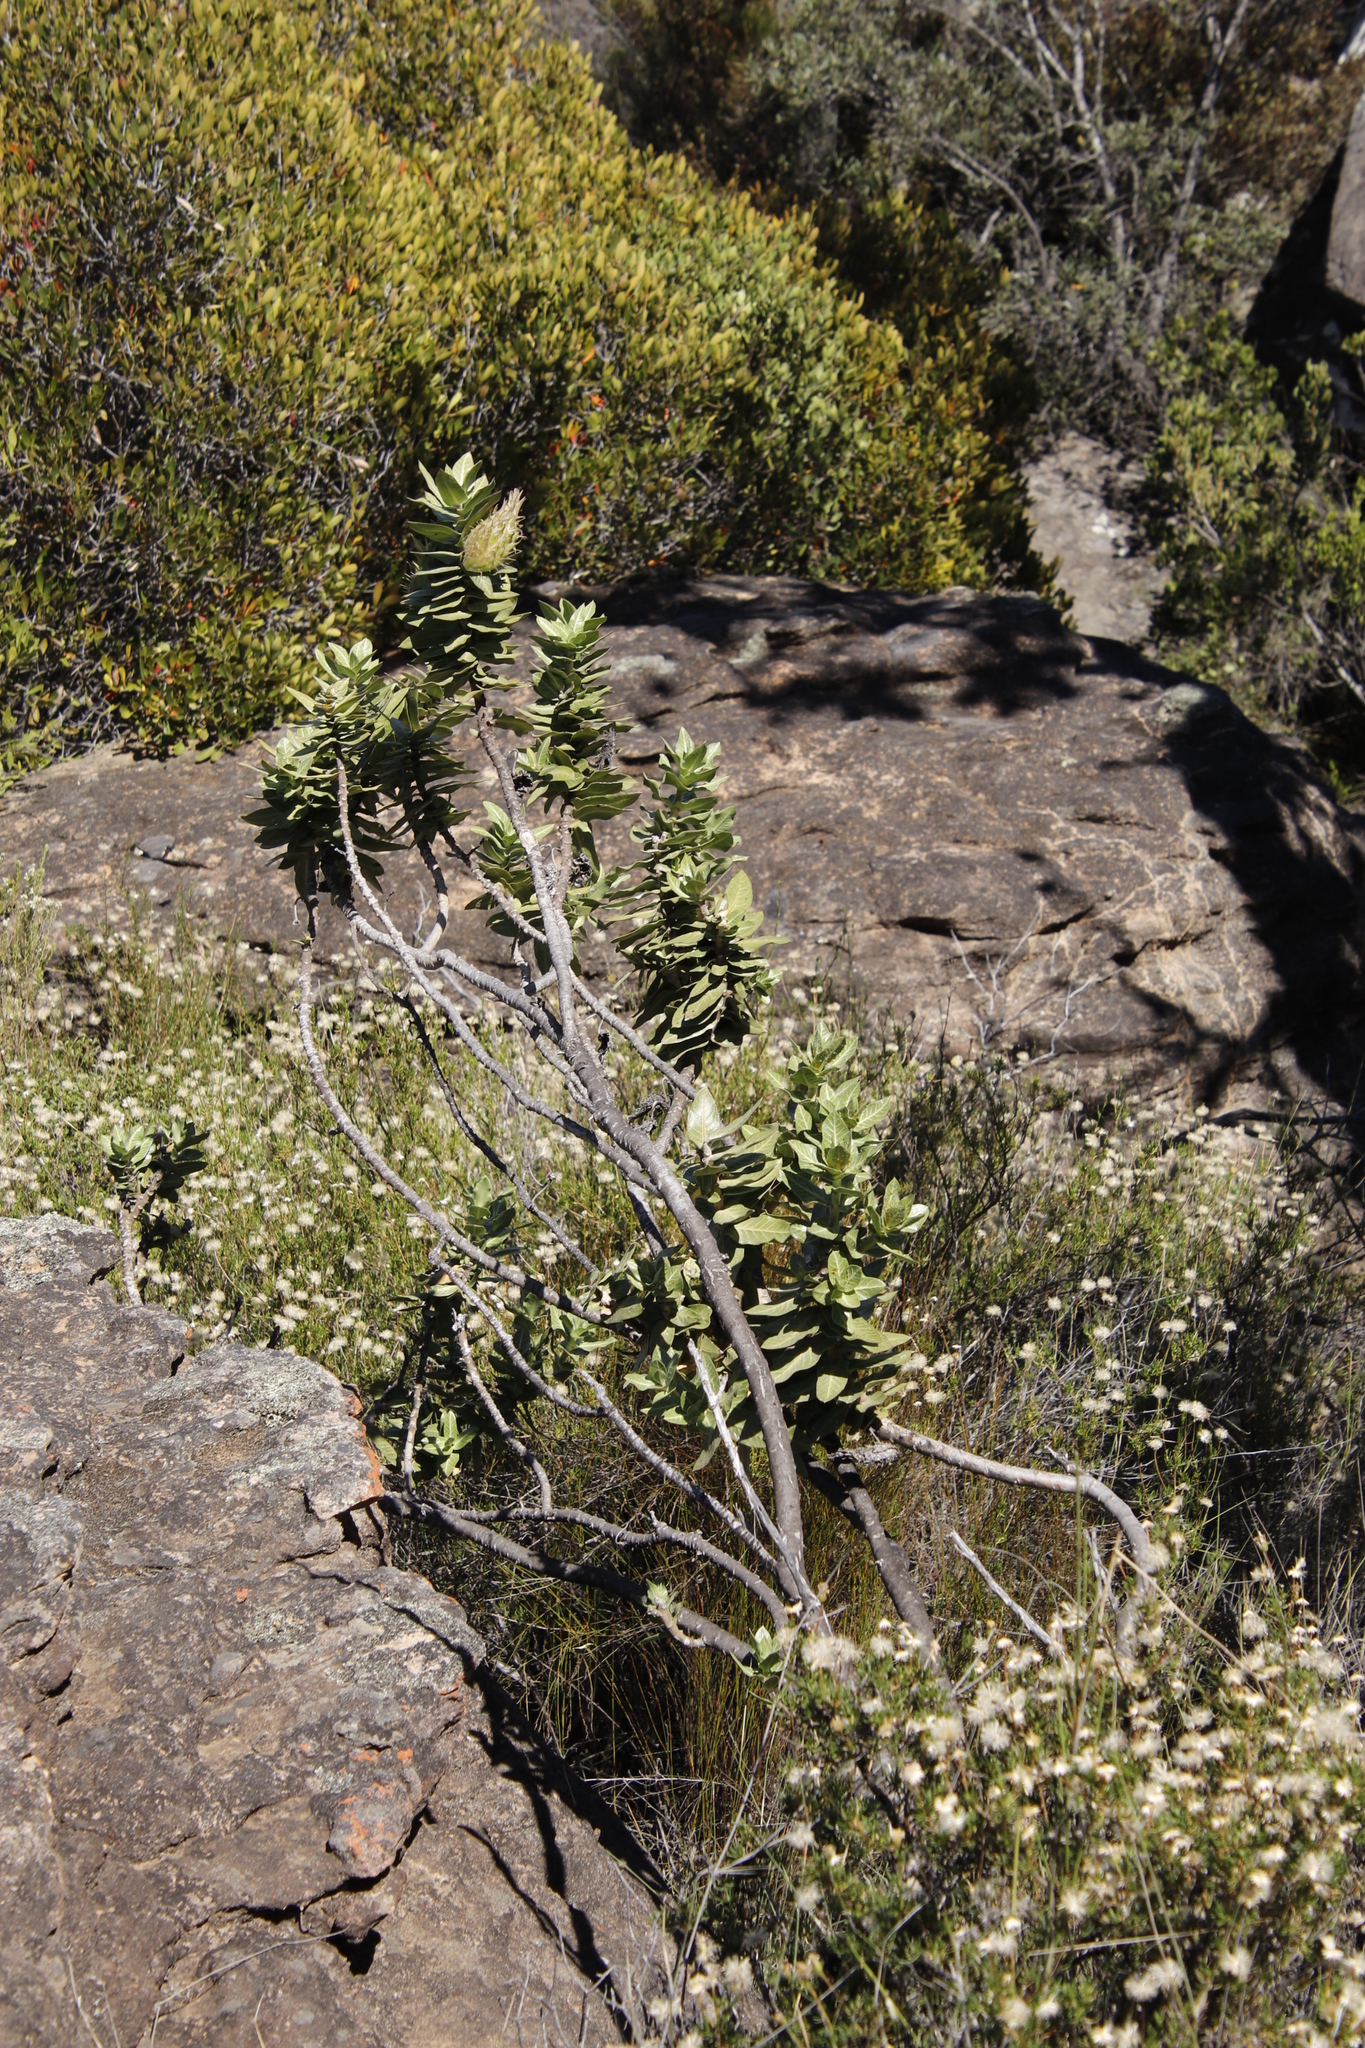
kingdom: Plantae
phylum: Tracheophyta
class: Magnoliopsida
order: Gentianales
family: Apocynaceae
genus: Gomphocarpus
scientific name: Gomphocarpus cancellatus
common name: Wild cotton
